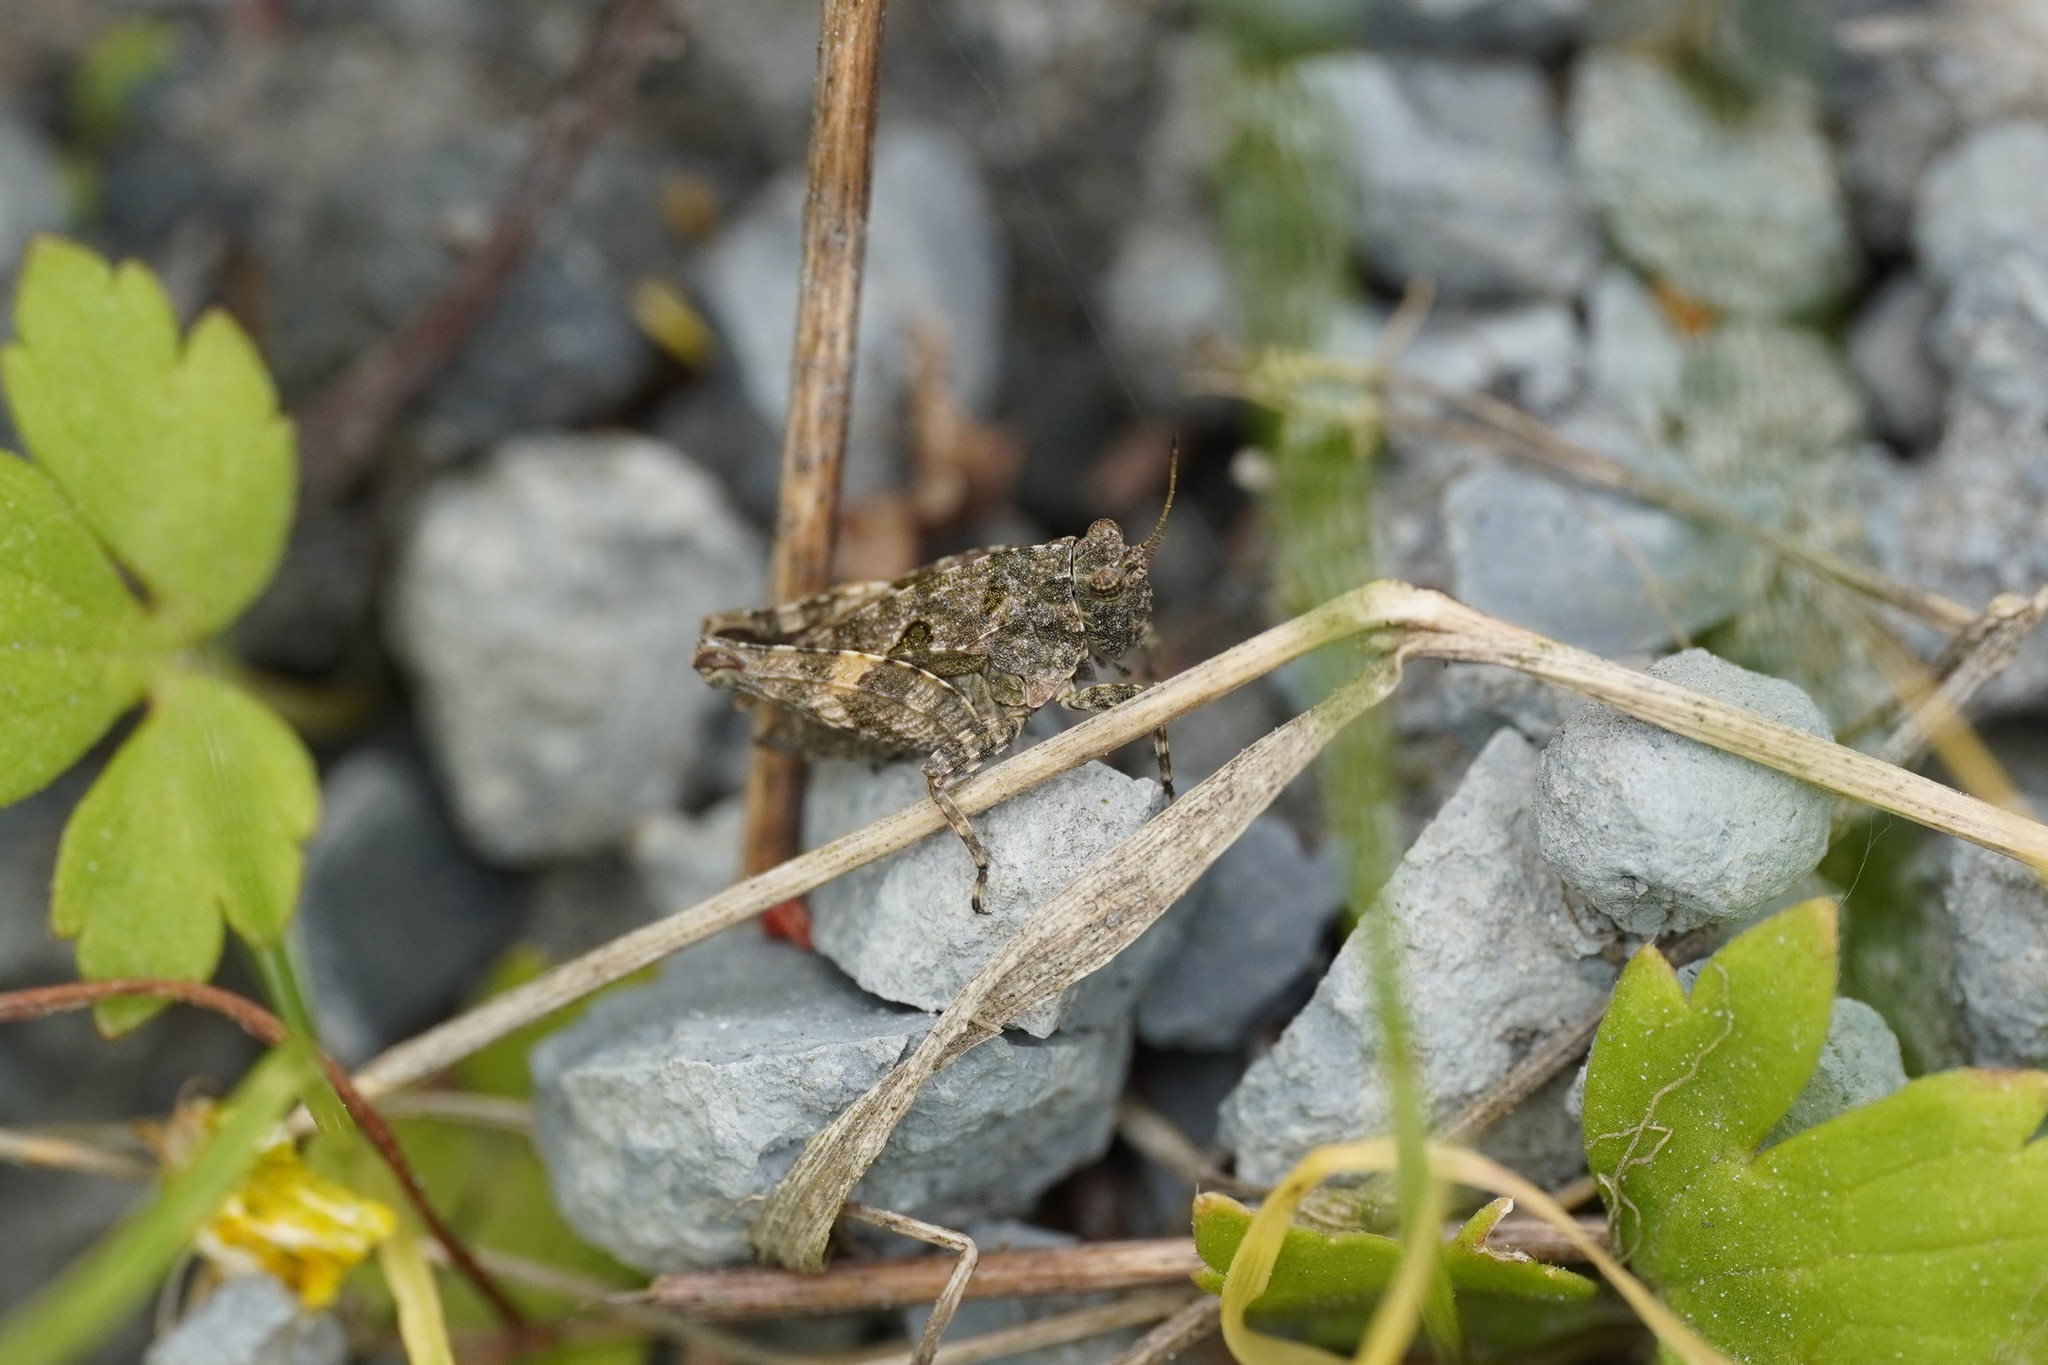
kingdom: Animalia
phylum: Arthropoda
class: Insecta
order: Orthoptera
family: Tetrigidae
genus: Tetrix
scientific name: Tetrix tenuicornis
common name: Long-horned groundhopper
